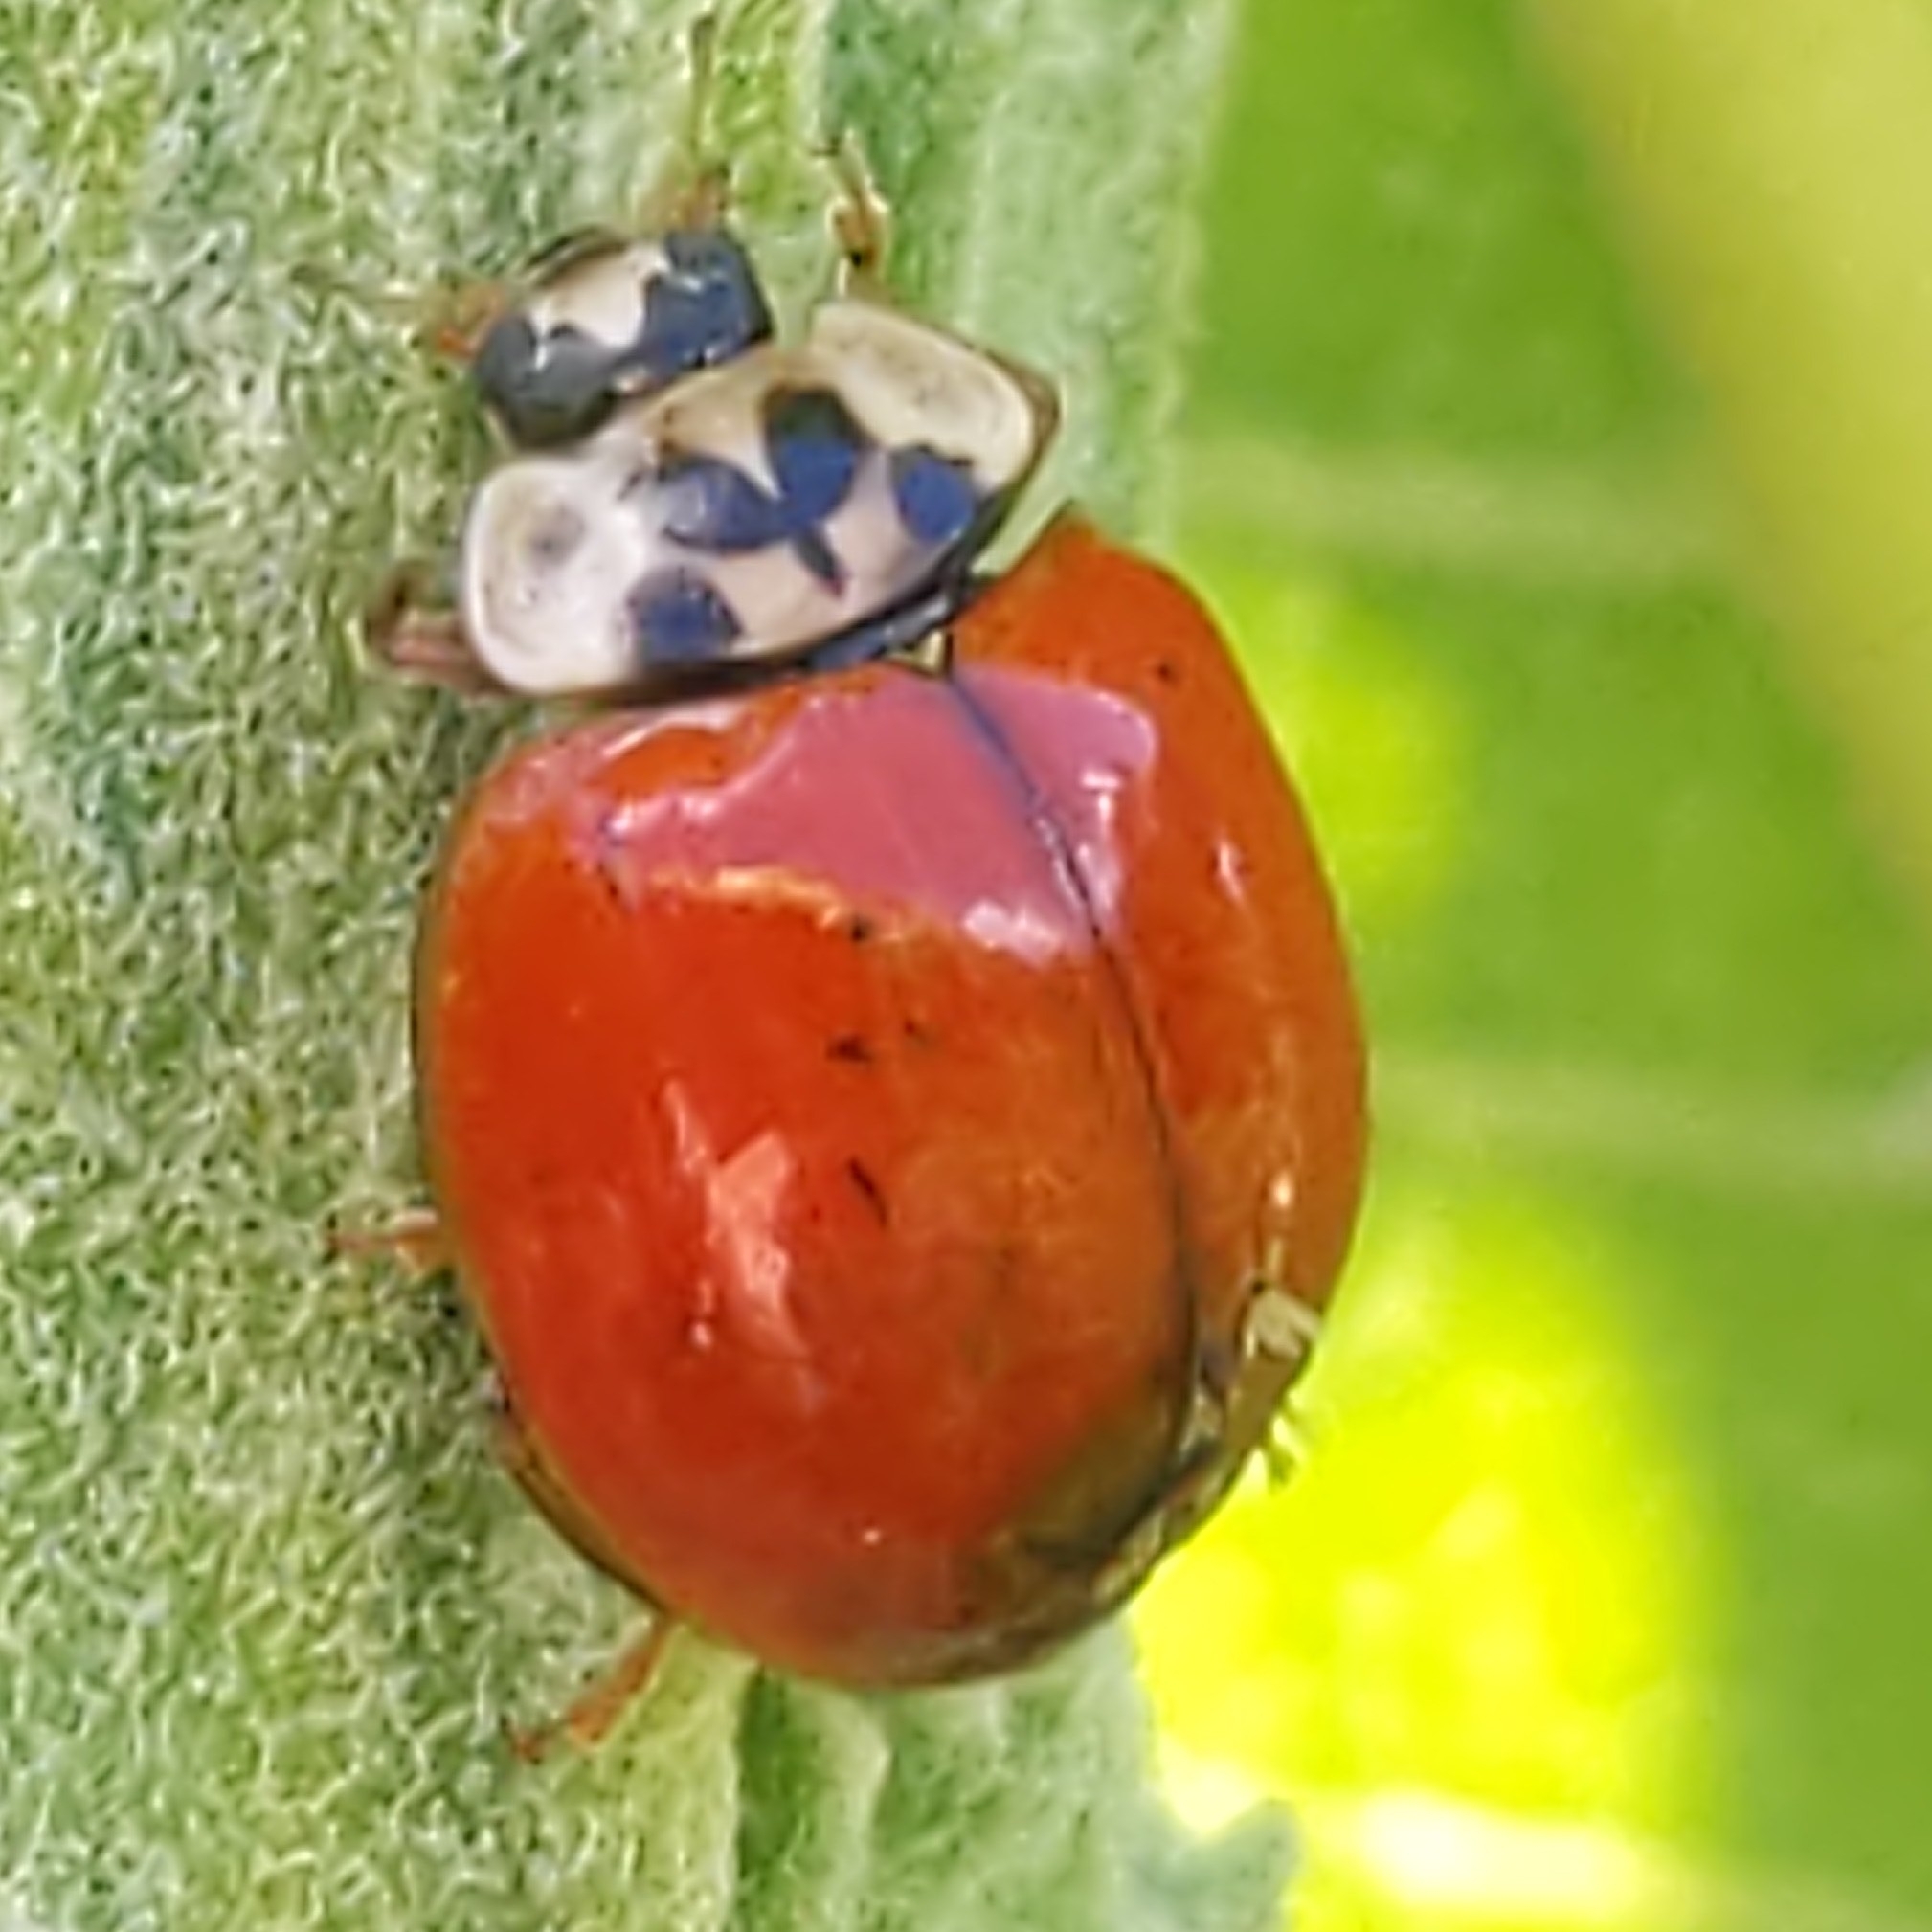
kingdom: Fungi
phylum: Ascomycota
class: Laboulbeniomycetes
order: Laboulbeniales
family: Laboulbeniaceae
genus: Hesperomyces
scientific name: Hesperomyces harmoniae
